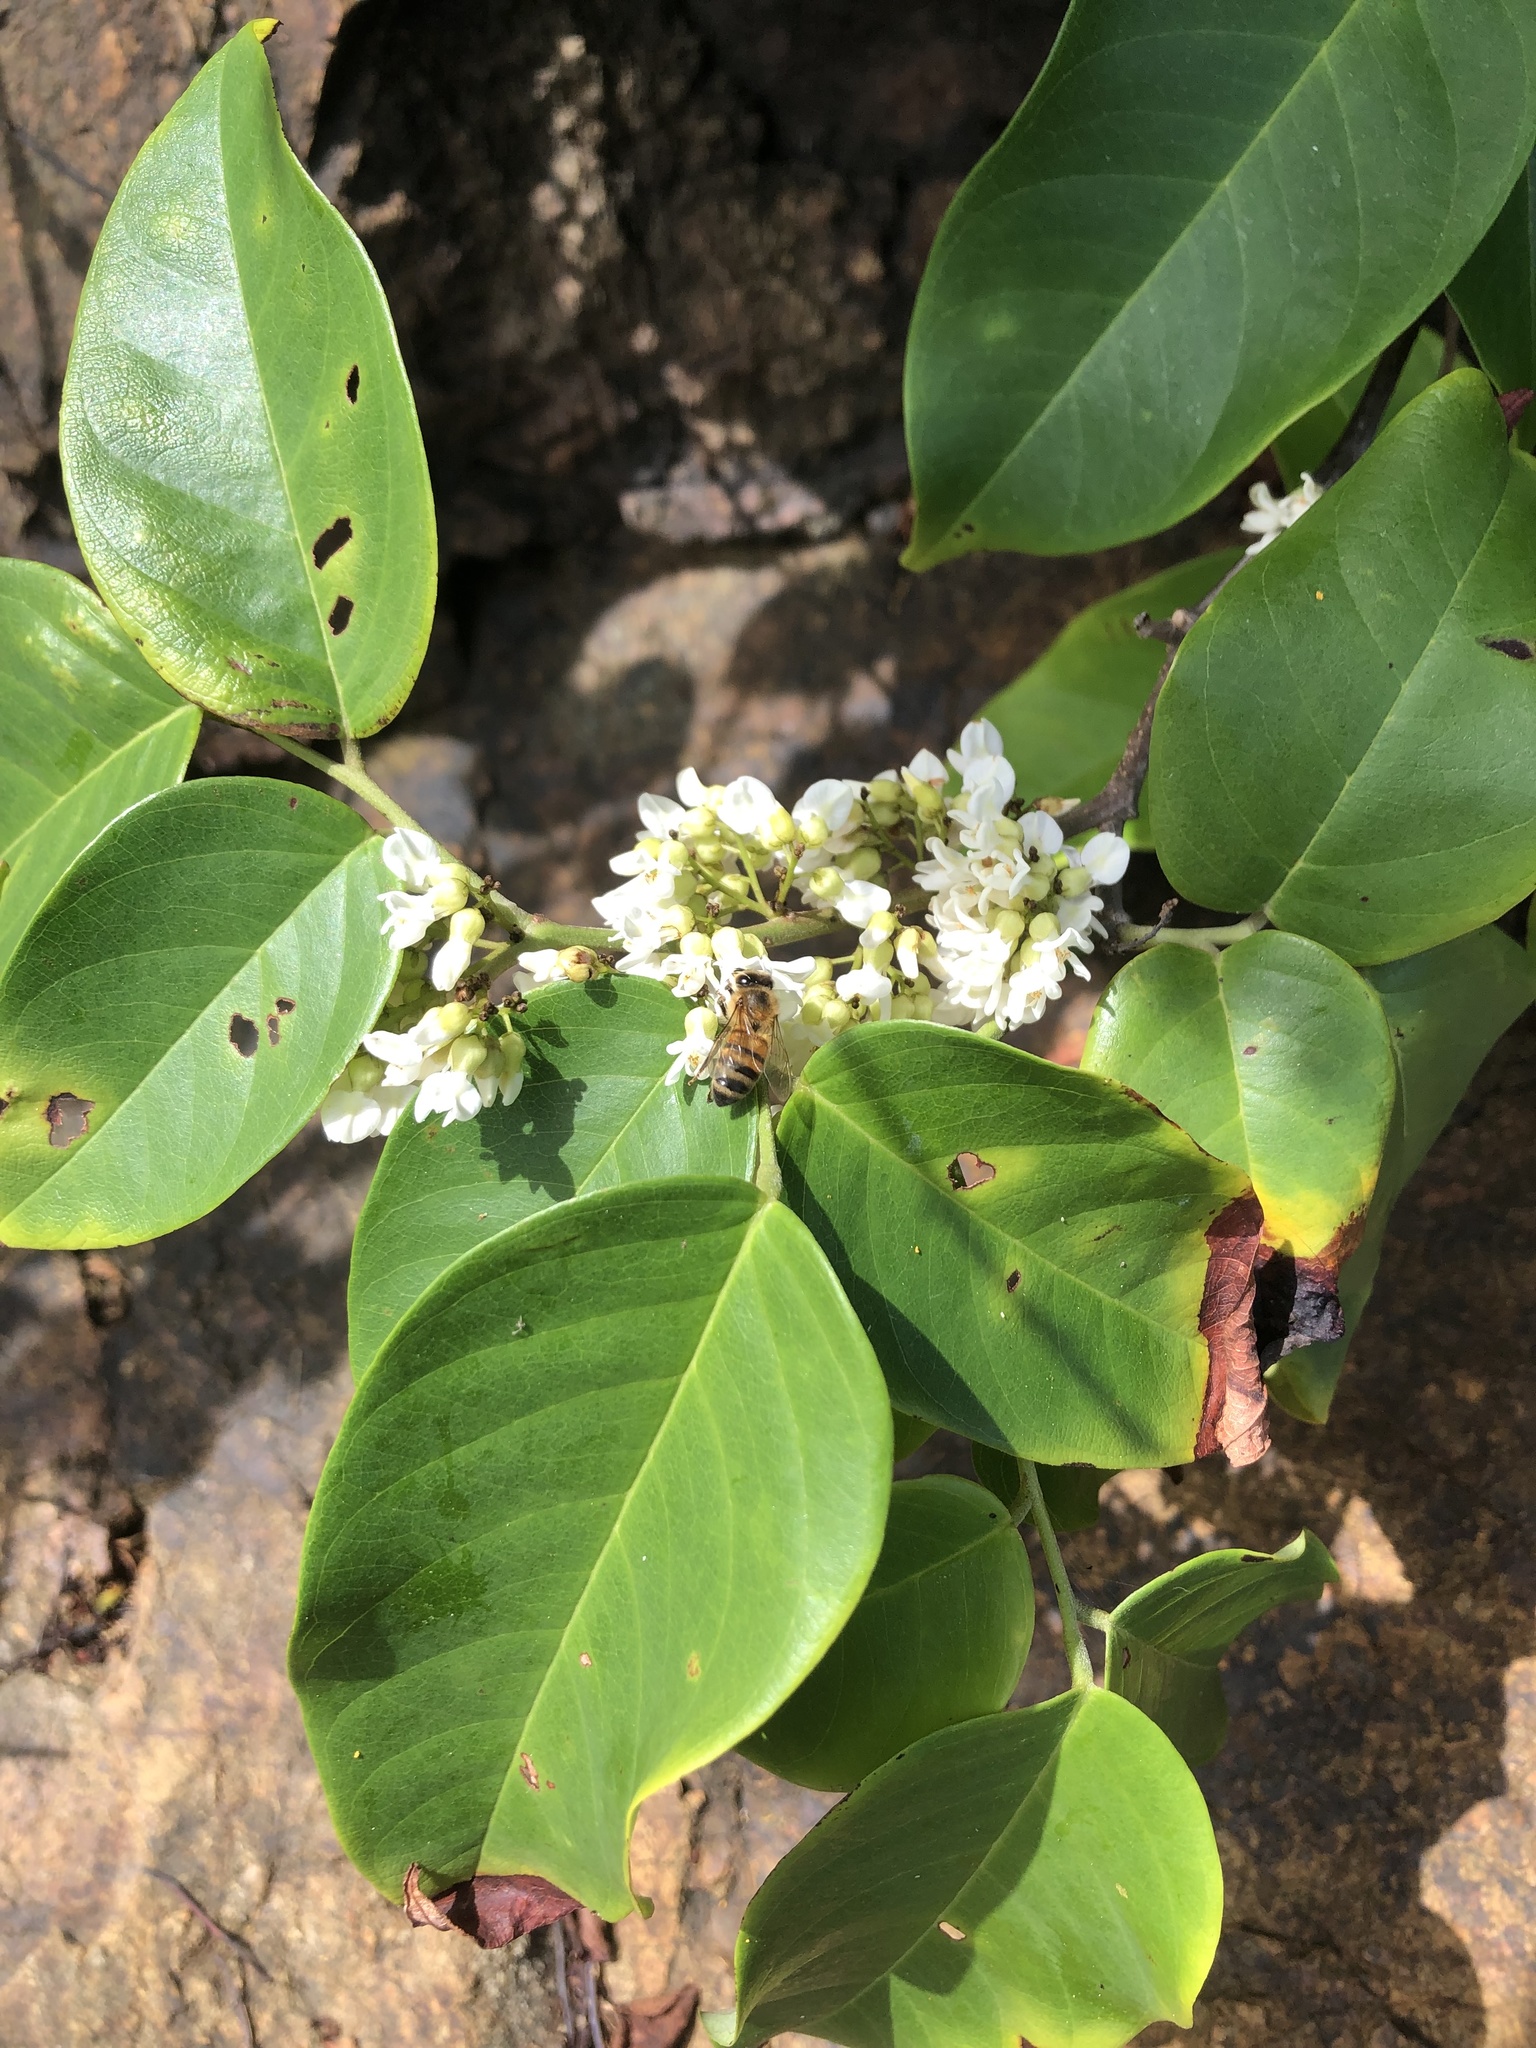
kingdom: Plantae
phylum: Tracheophyta
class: Magnoliopsida
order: Fabales
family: Fabaceae
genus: Dalbergia
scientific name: Dalbergia ecastaphyllum
